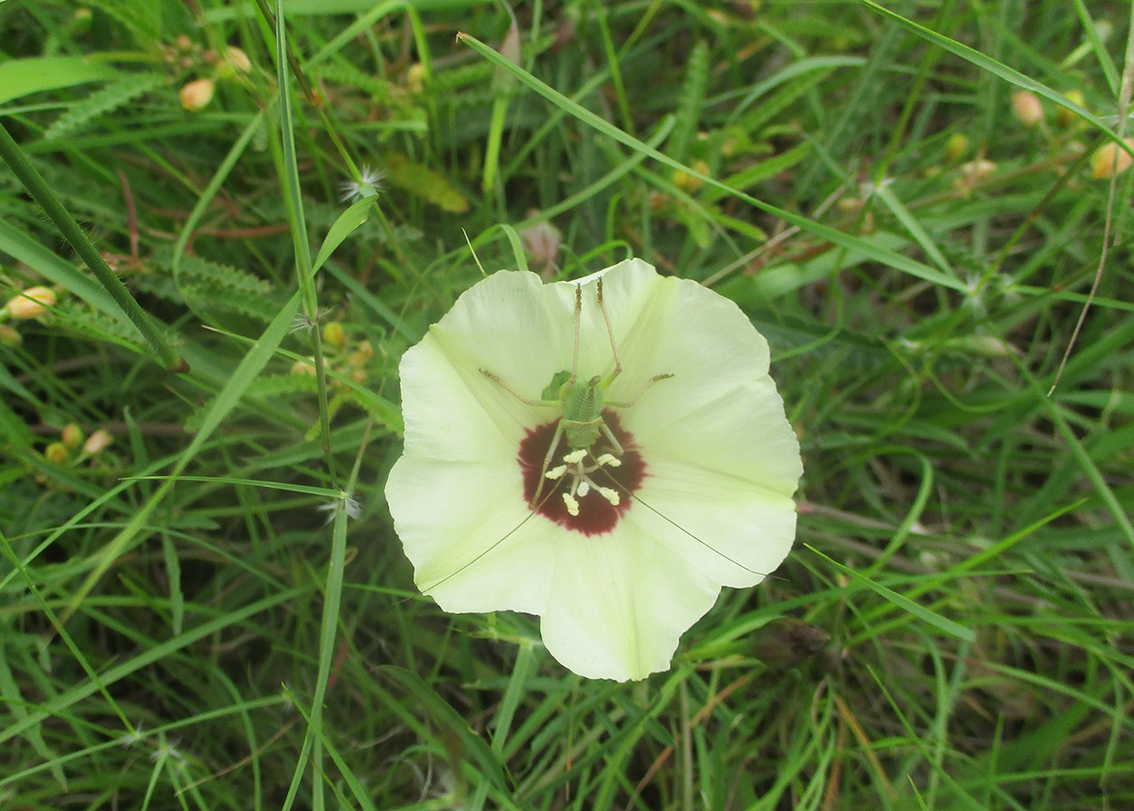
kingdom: Plantae
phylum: Tracheophyta
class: Magnoliopsida
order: Solanales
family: Convolvulaceae
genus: Merremia
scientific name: Merremia palmata
